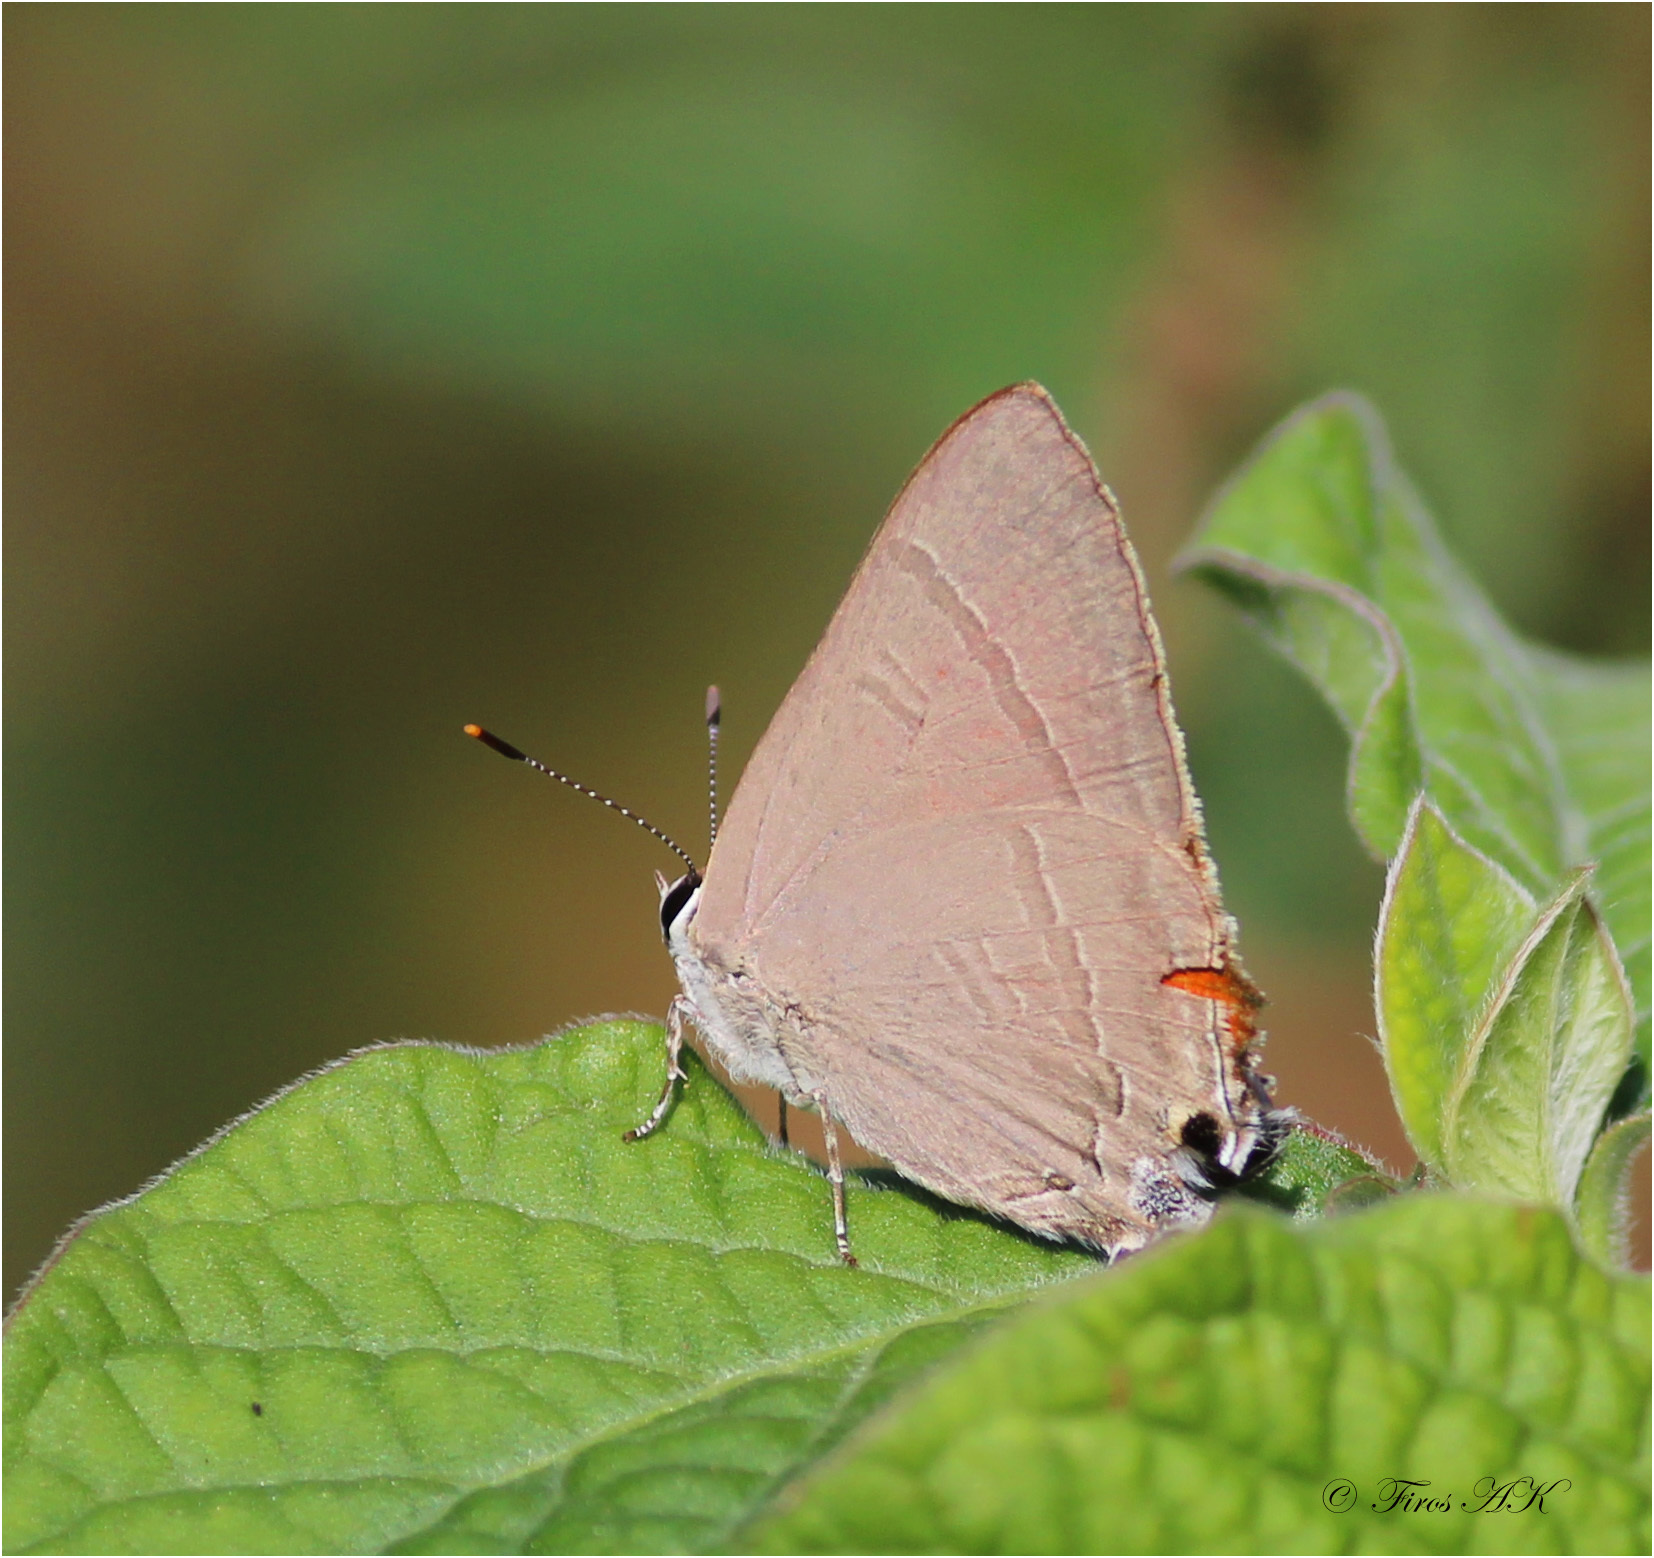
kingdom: Animalia
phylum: Arthropoda
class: Insecta
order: Lepidoptera
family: Lycaenidae
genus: Rapala
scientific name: Rapala iarbus
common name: Common red flash
